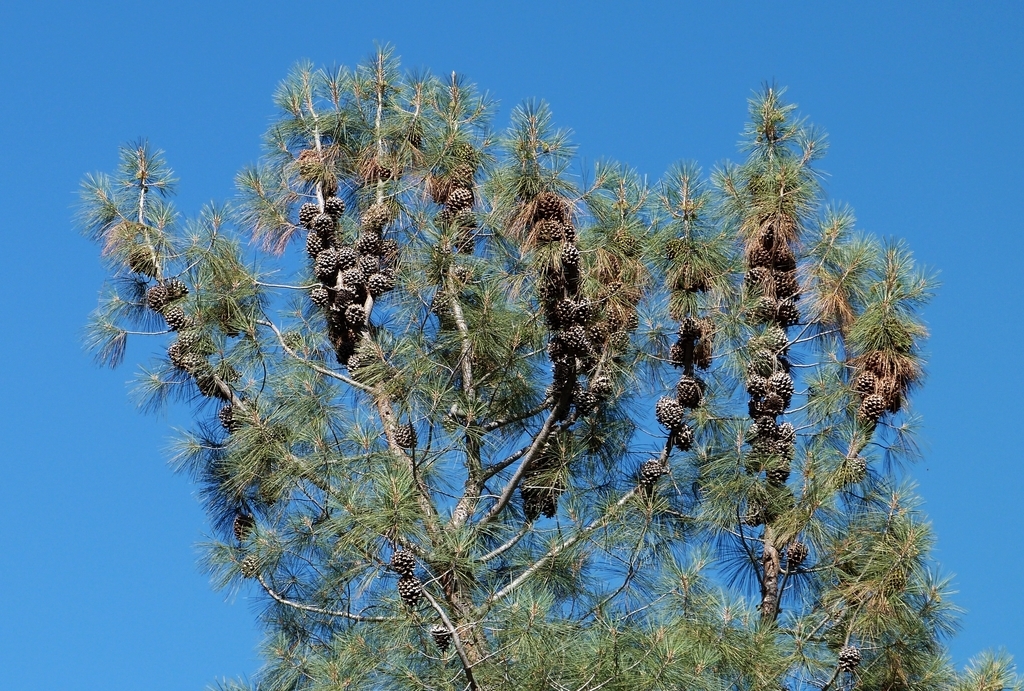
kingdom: Plantae
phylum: Tracheophyta
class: Pinopsida
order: Pinales
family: Pinaceae
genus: Pinus
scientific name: Pinus sabiniana
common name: Bull pine
